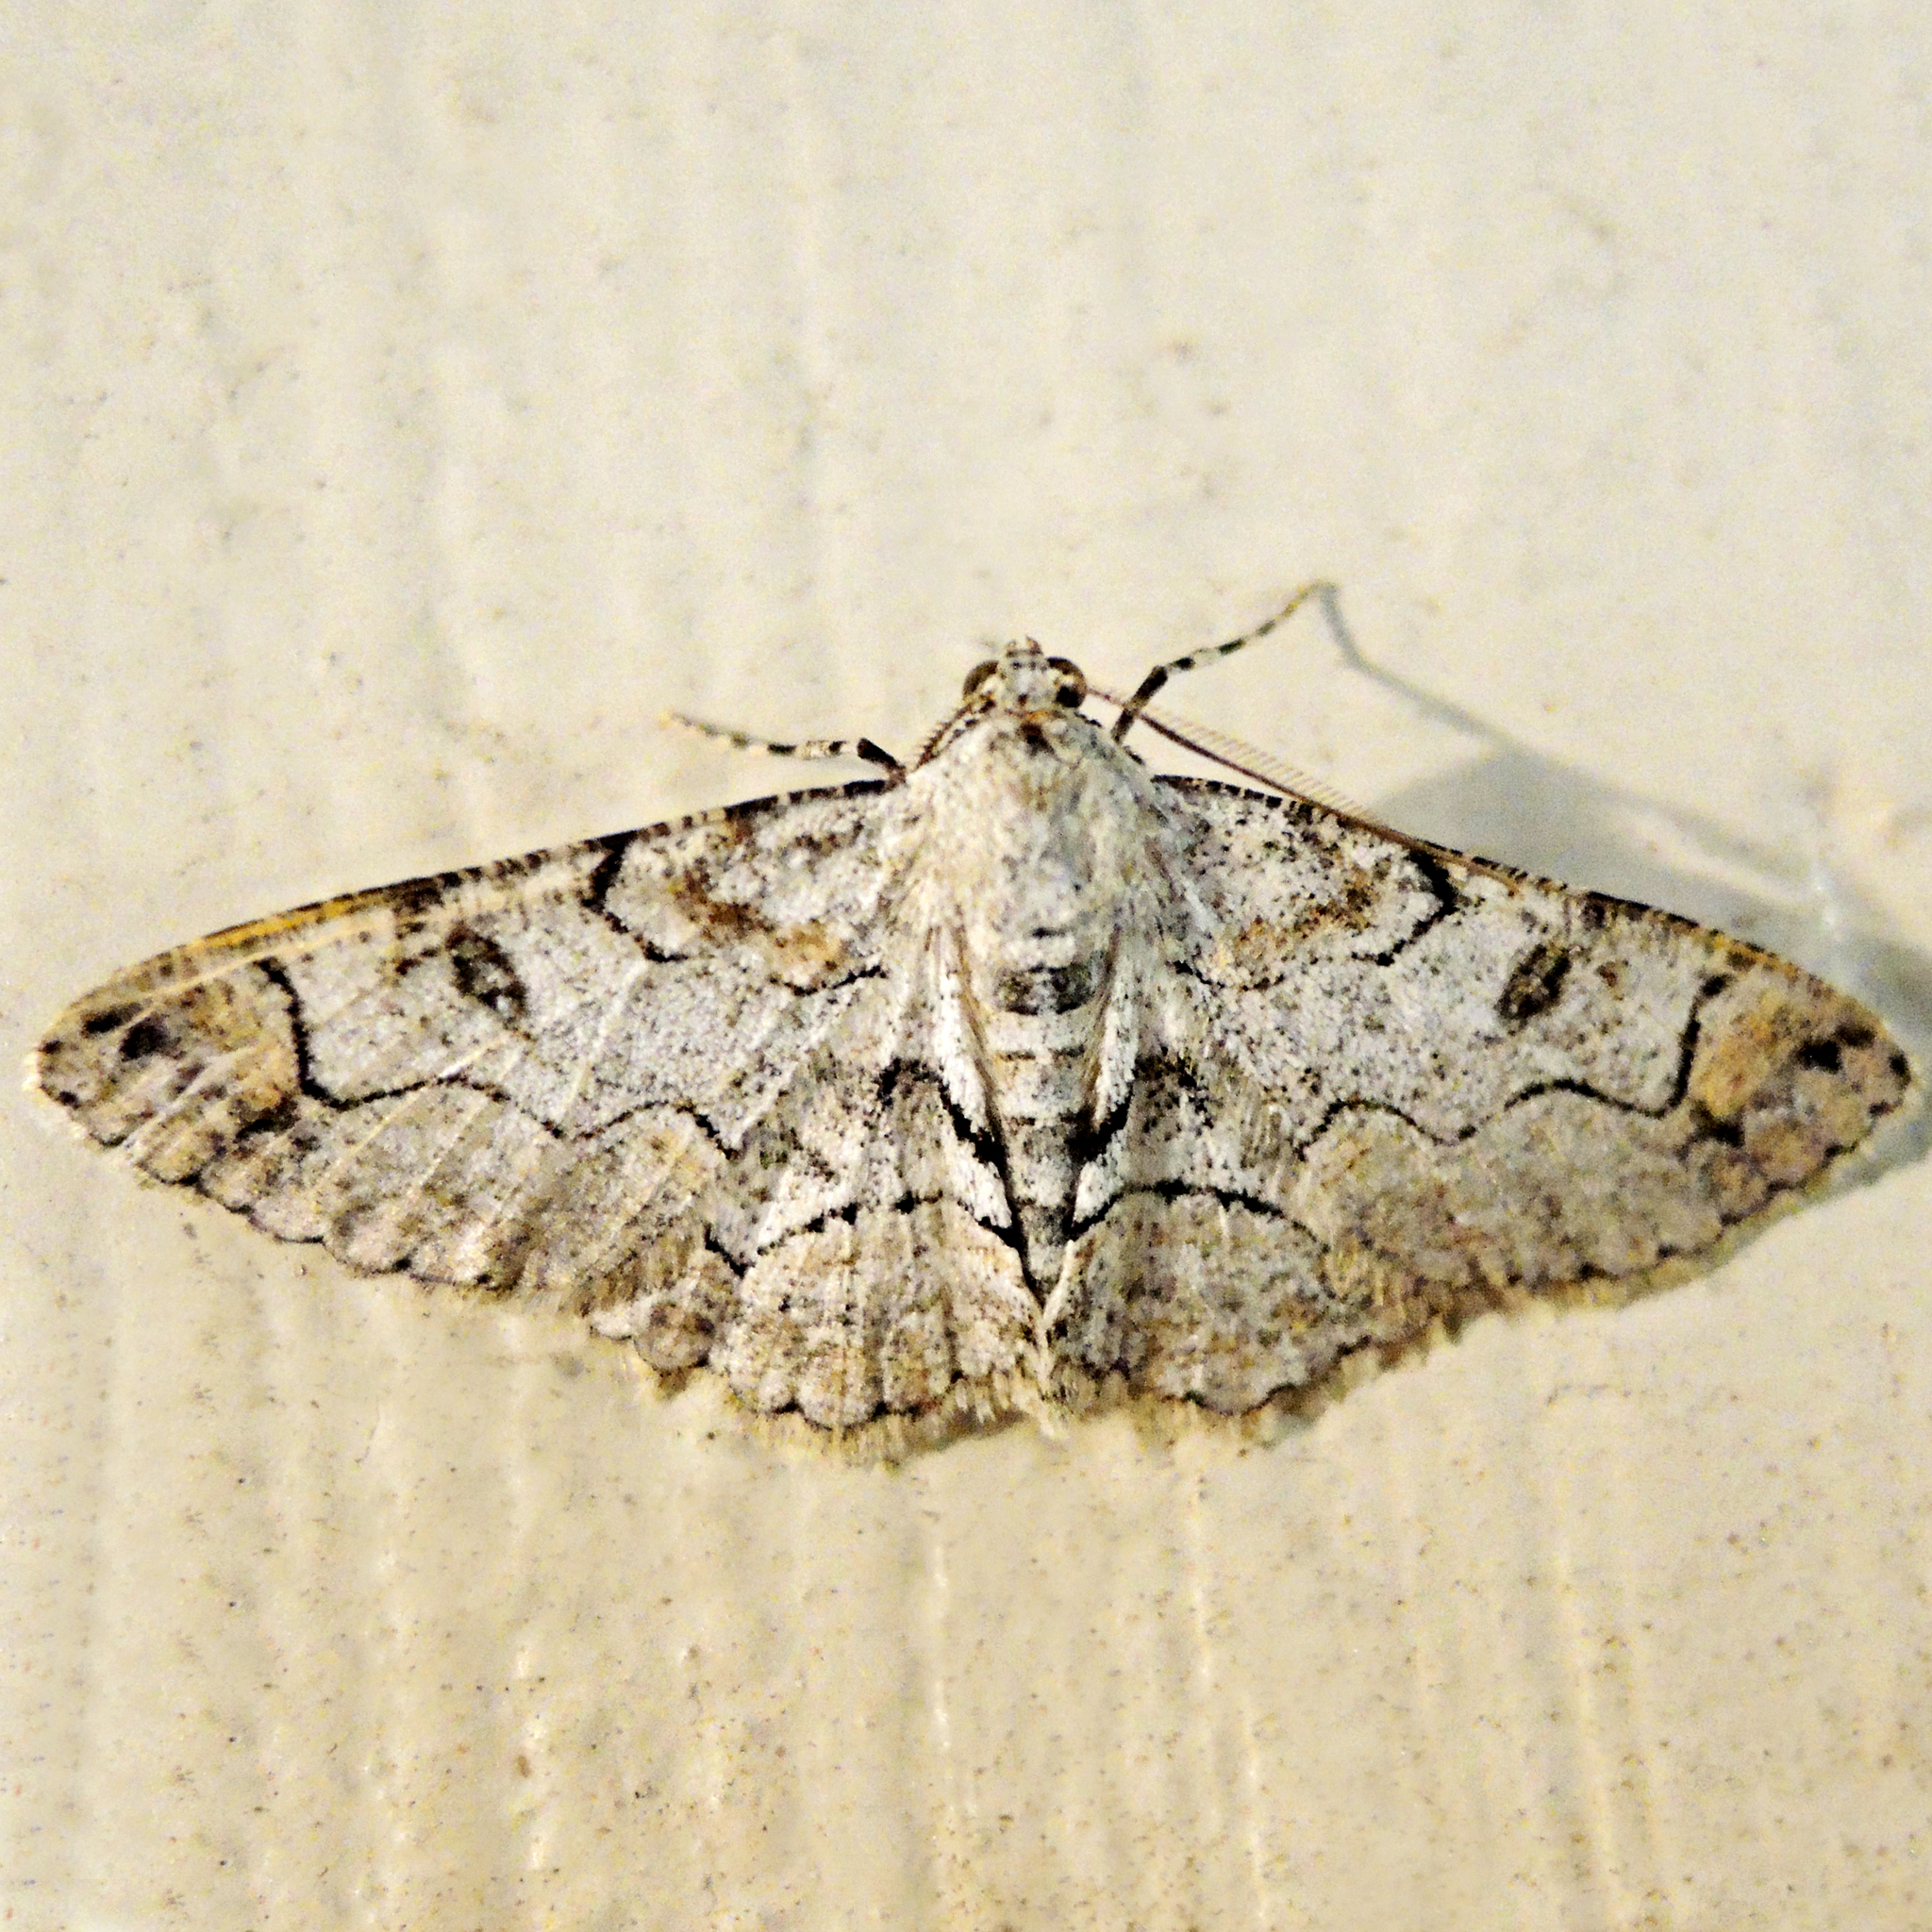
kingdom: Animalia
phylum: Arthropoda
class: Insecta
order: Lepidoptera
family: Geometridae
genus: Iridopsis
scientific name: Iridopsis larvaria
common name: Bent-line gray
